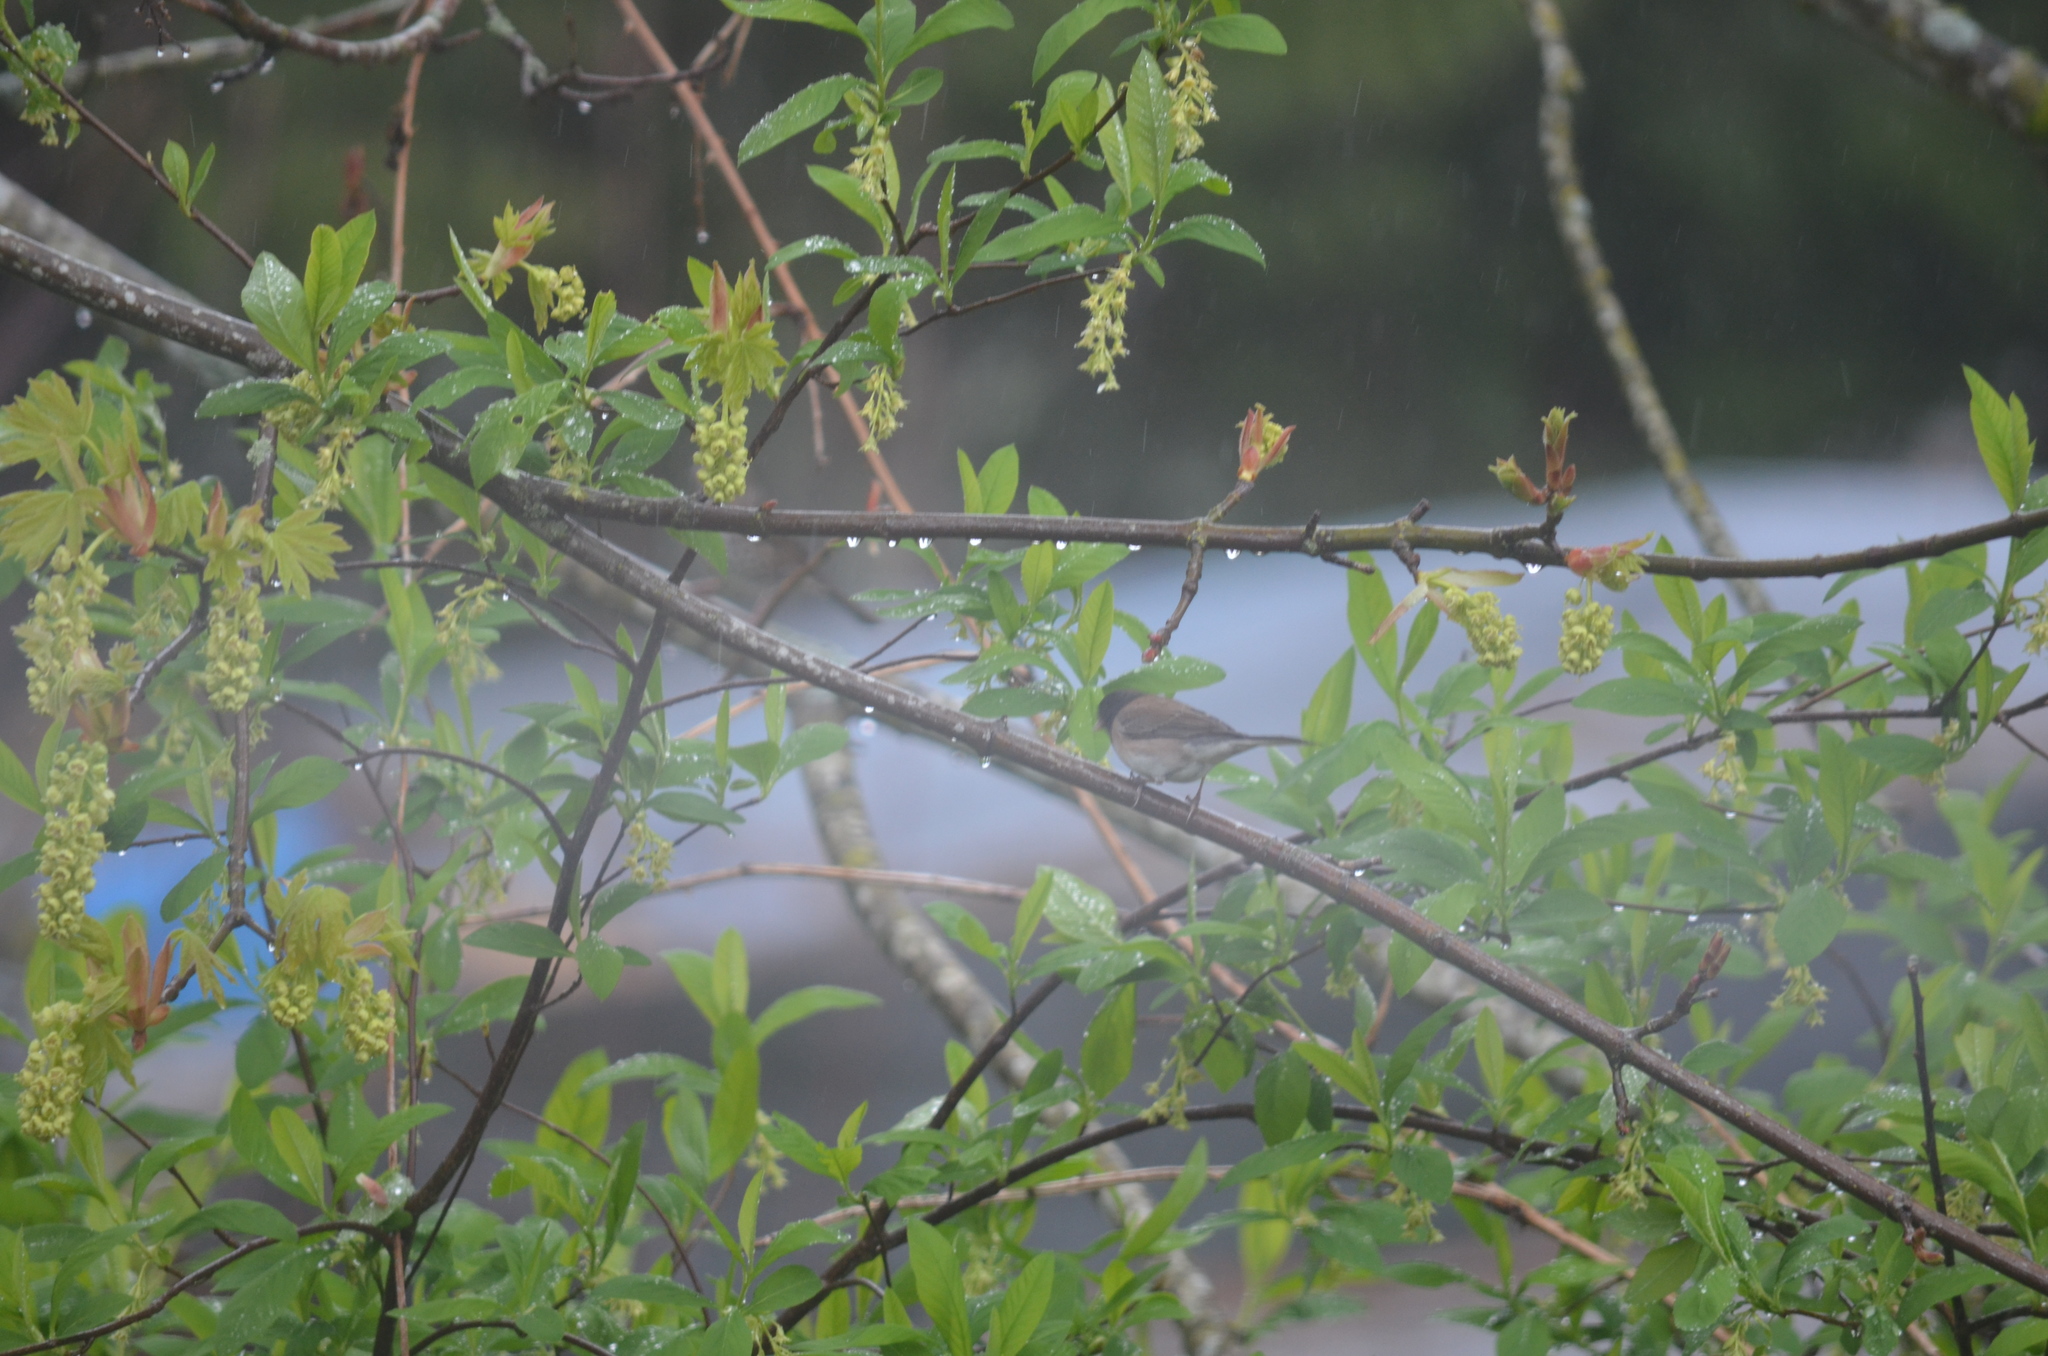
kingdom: Animalia
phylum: Chordata
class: Aves
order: Passeriformes
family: Passerellidae
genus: Junco
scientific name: Junco hyemalis
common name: Dark-eyed junco
